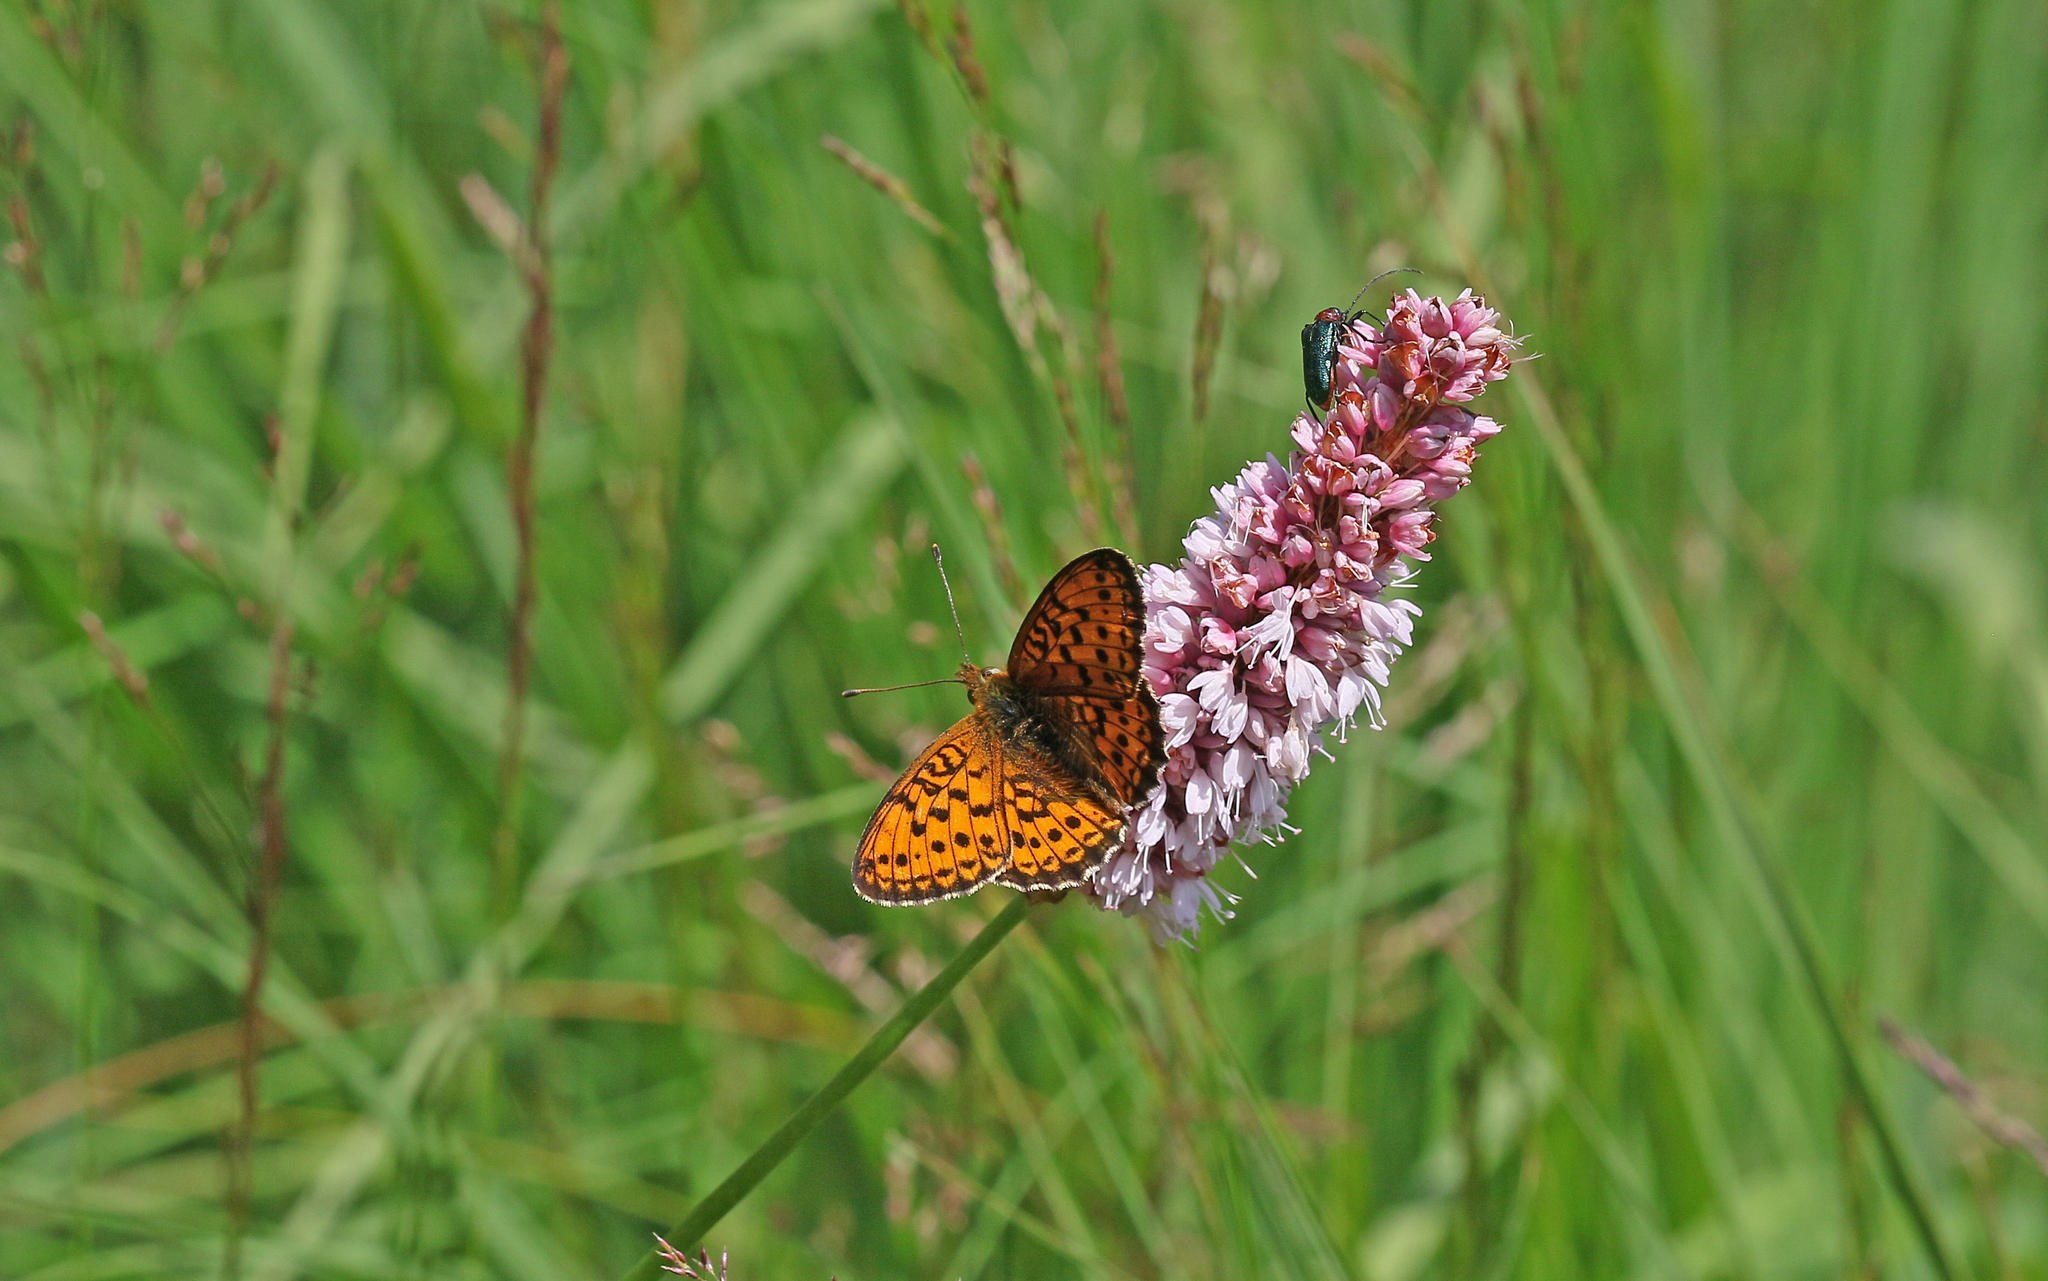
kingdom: Animalia
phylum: Arthropoda
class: Insecta
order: Lepidoptera
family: Nymphalidae
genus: Brenthis
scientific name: Brenthis ino
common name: Lesser marbled fritillary
